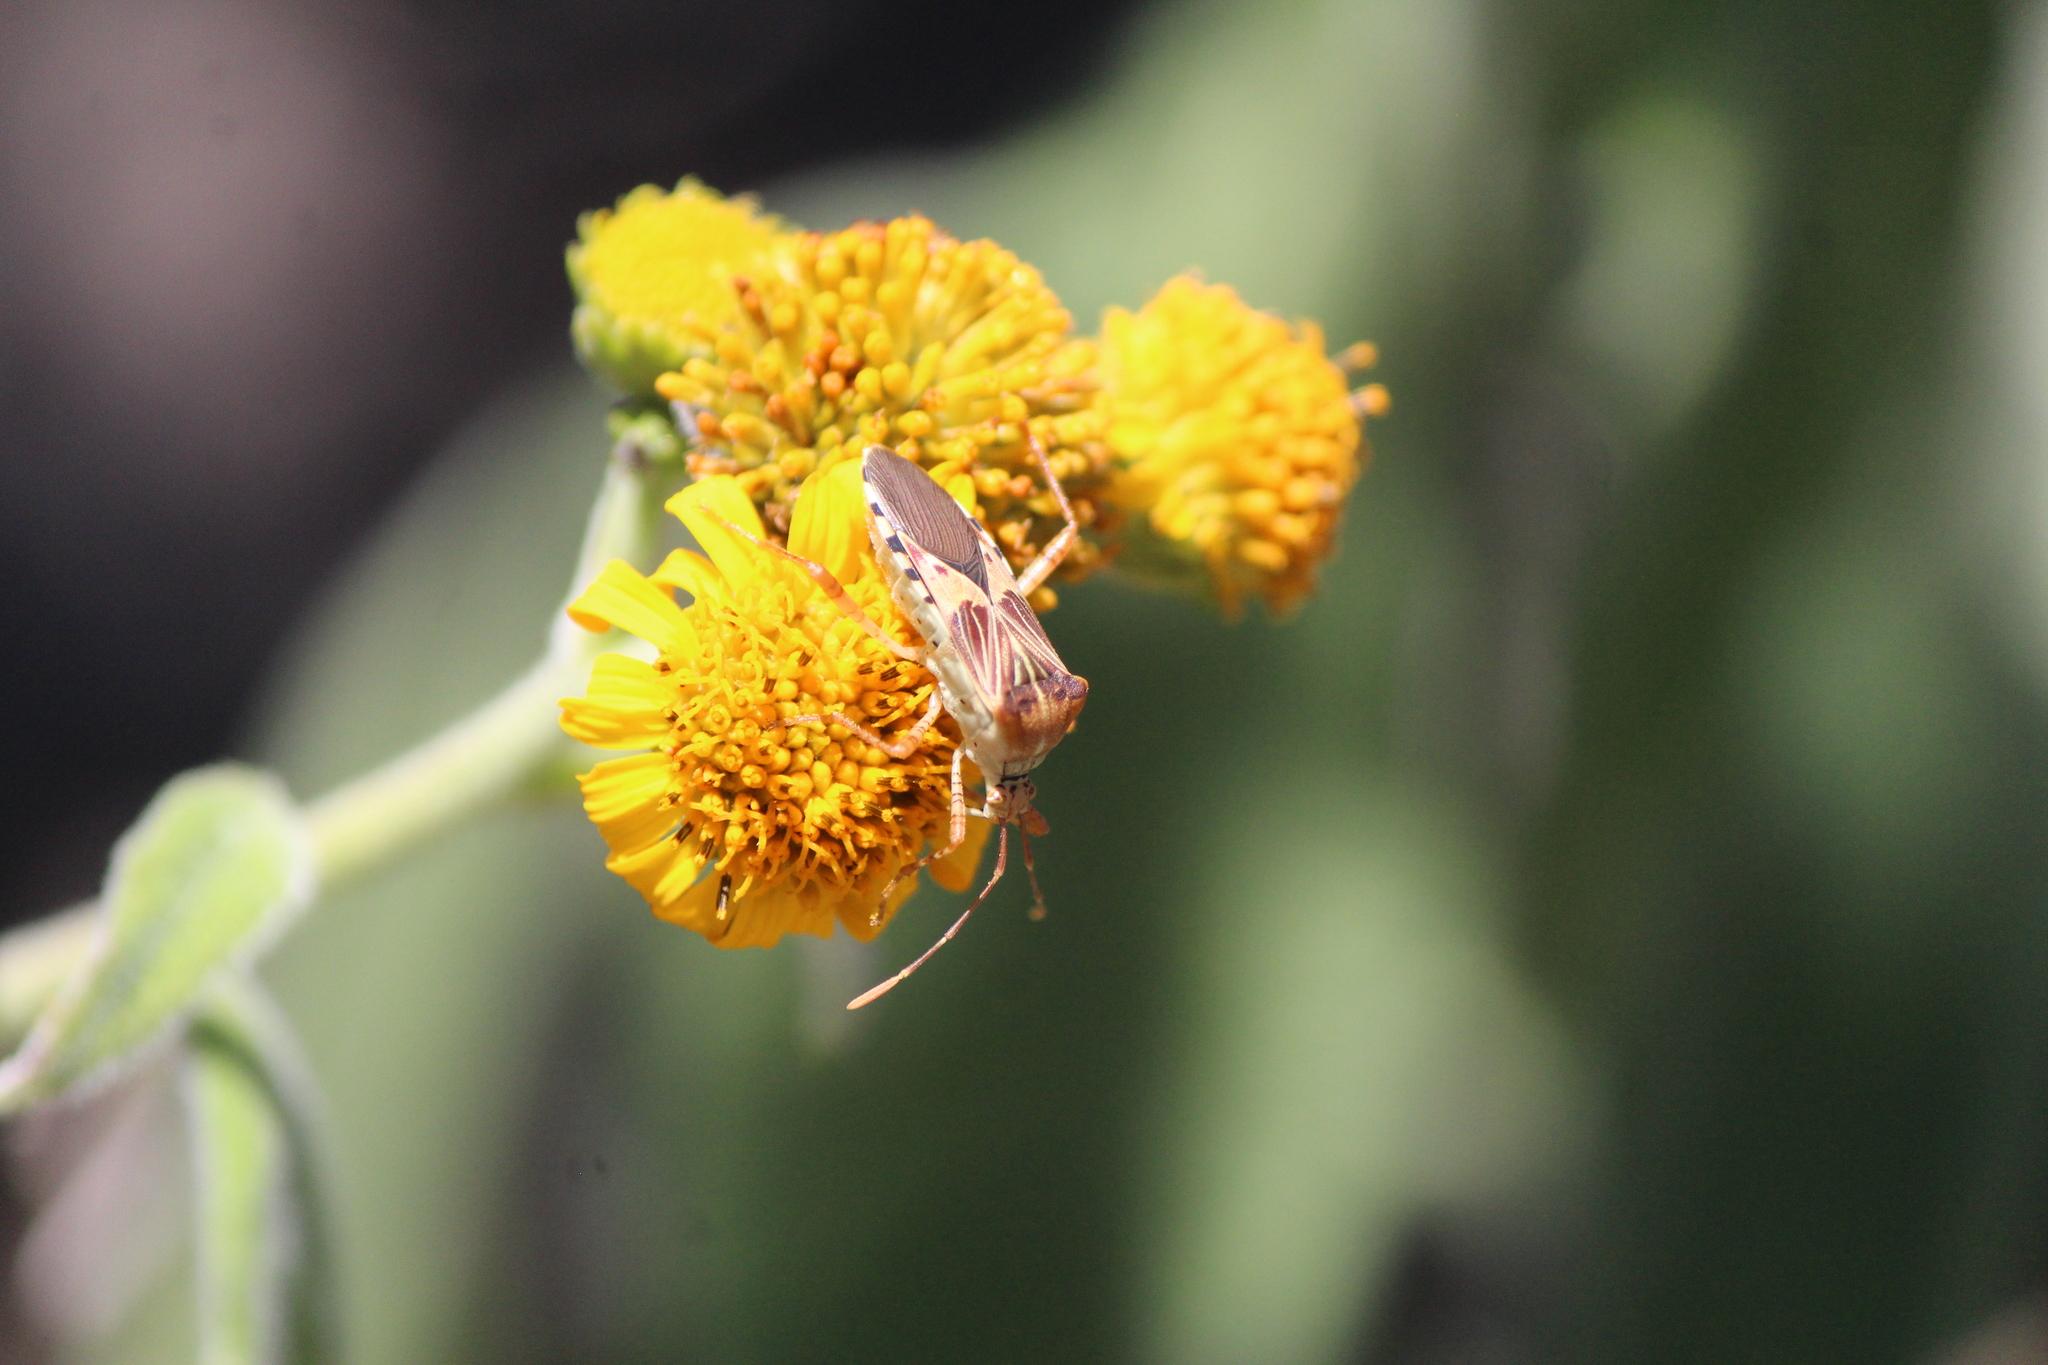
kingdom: Animalia
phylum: Arthropoda
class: Insecta
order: Hemiptera
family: Coreidae
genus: Hypselonotus
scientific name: Hypselonotus punctiventris
